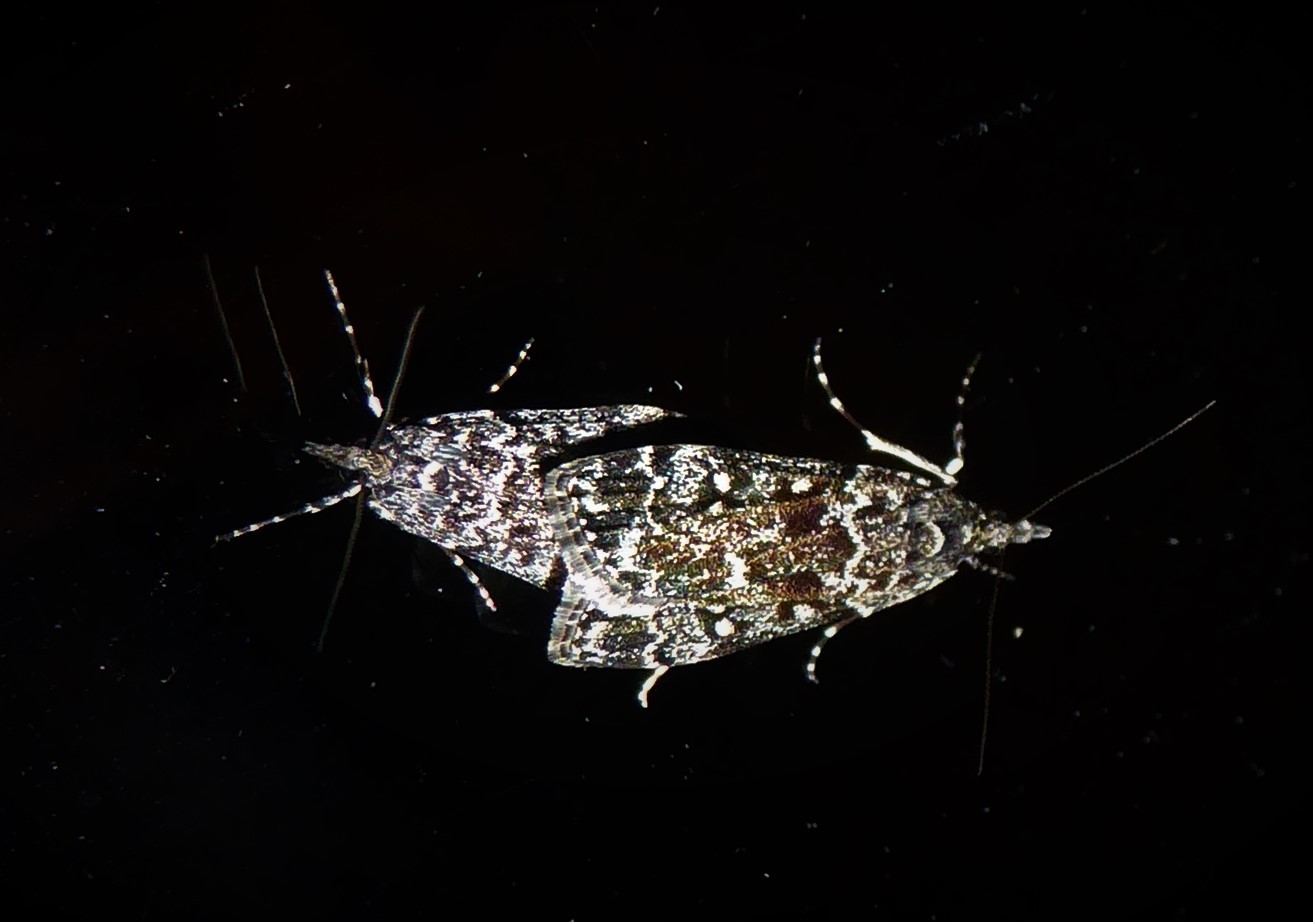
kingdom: Animalia
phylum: Arthropoda
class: Insecta
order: Lepidoptera
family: Crambidae
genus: Eudonia
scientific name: Eudonia philerga
